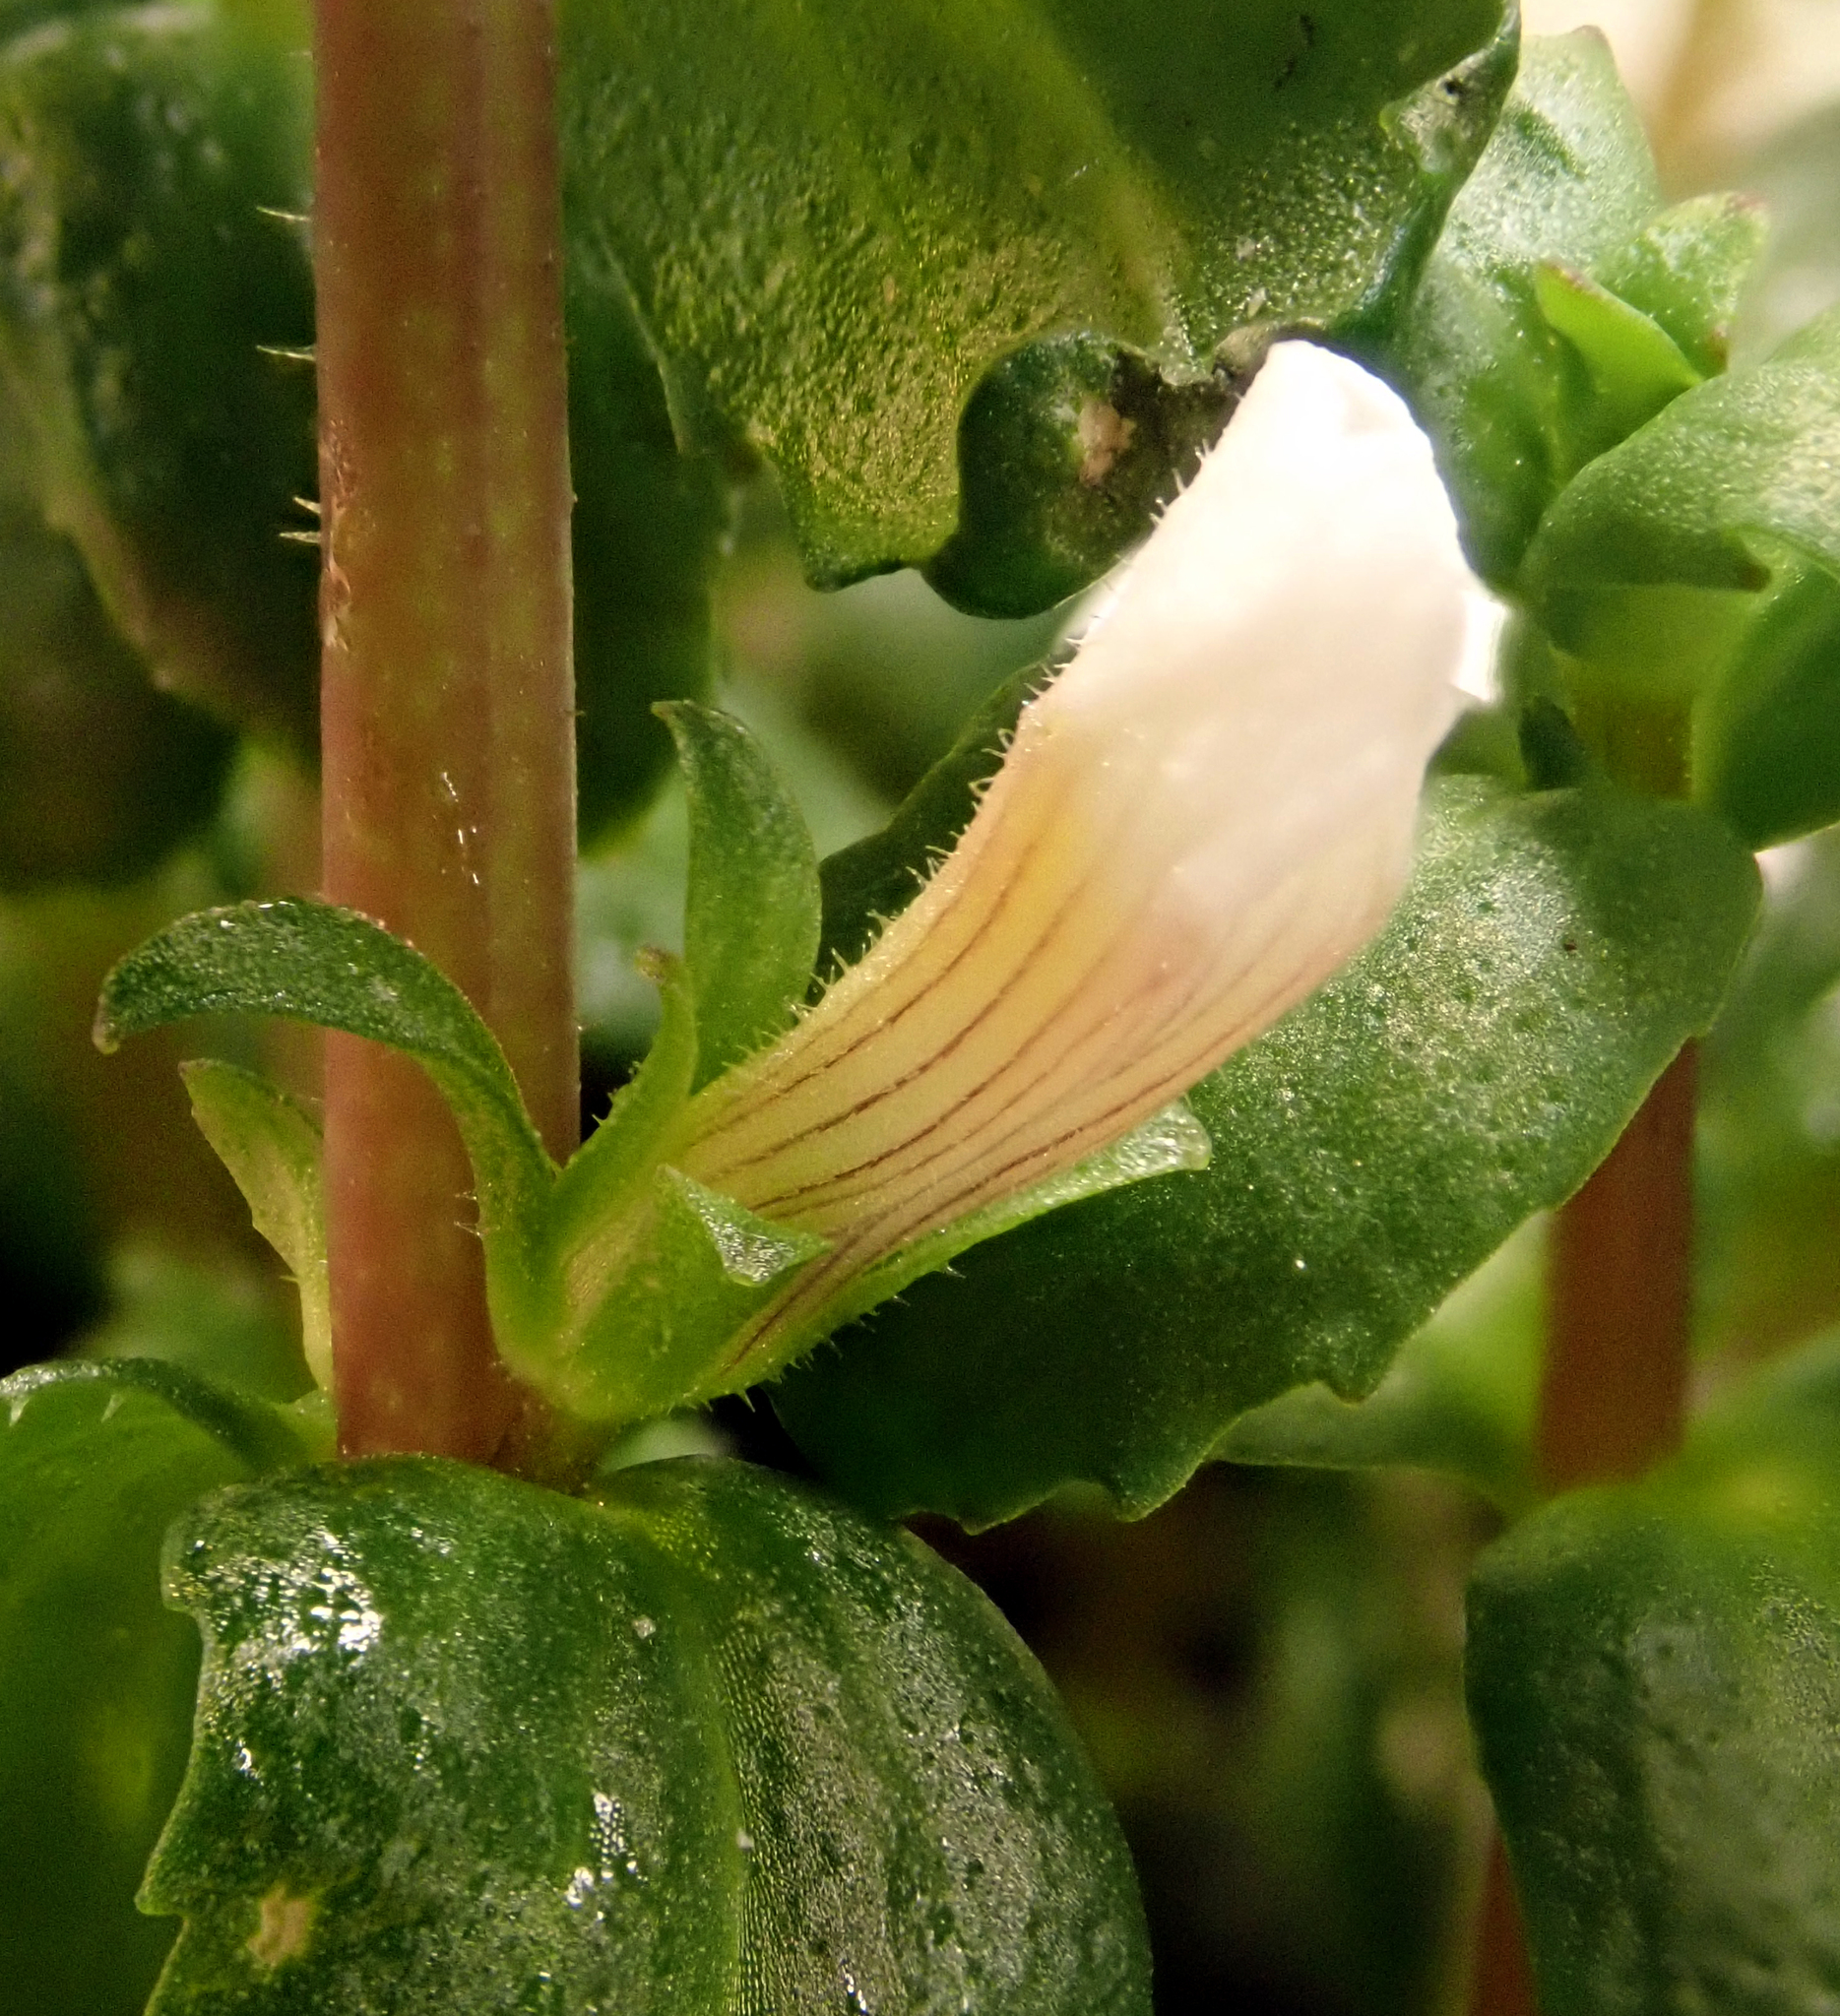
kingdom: Plantae
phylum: Tracheophyta
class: Magnoliopsida
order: Lamiales
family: Plantaginaceae
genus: Gratiola
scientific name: Gratiola sexdentata
